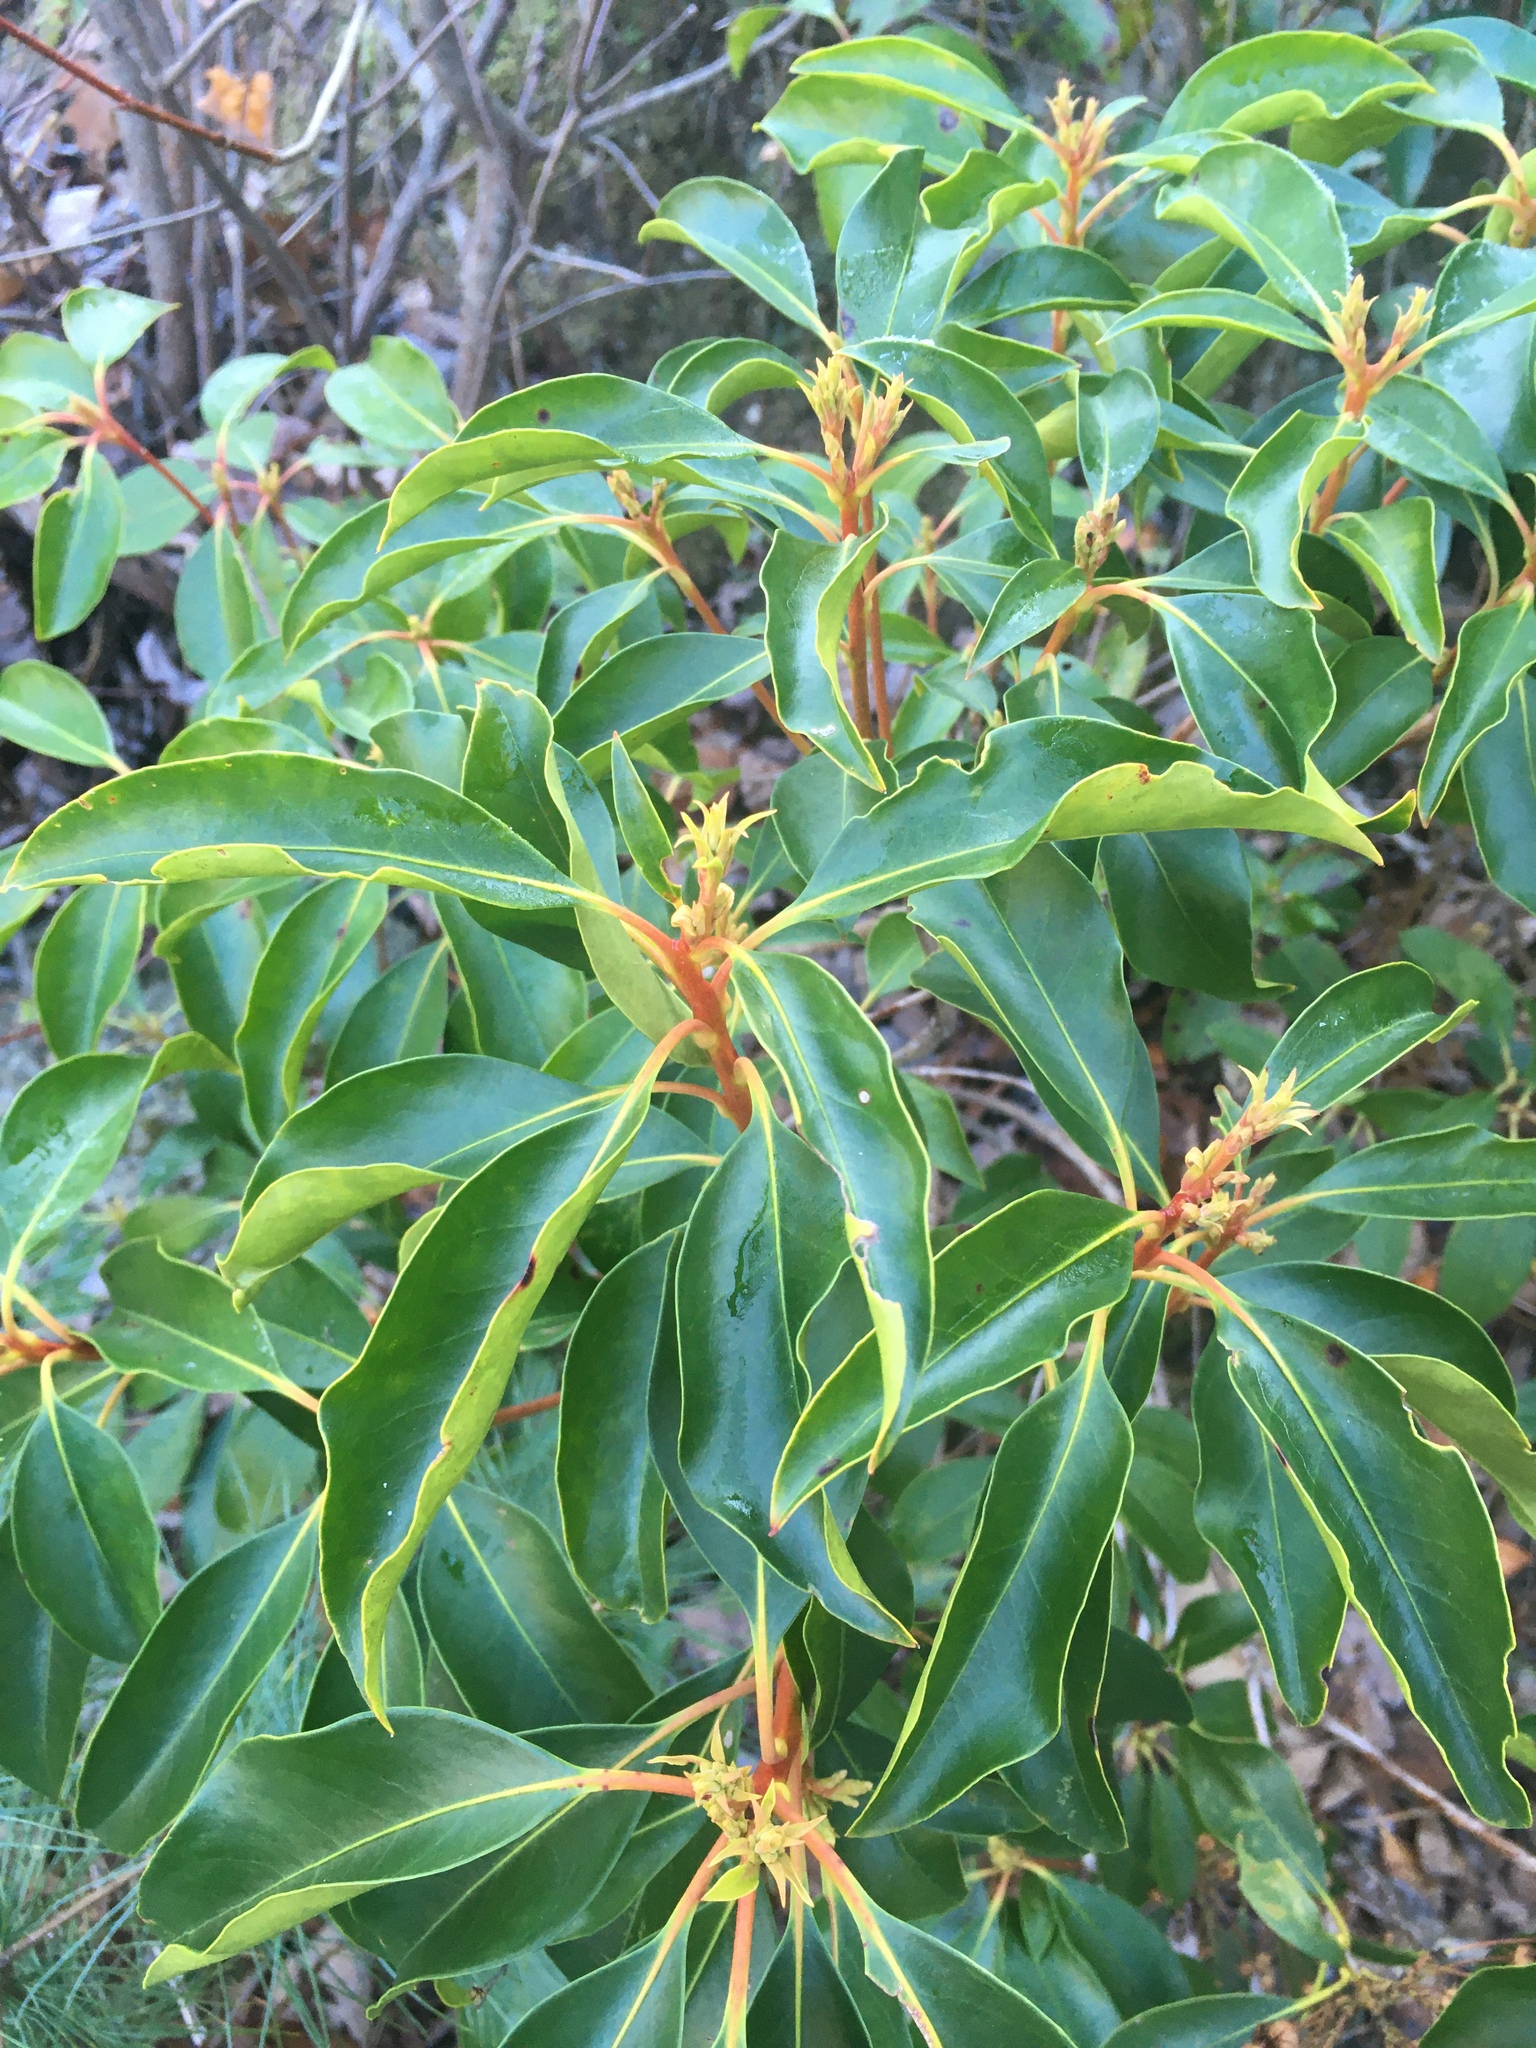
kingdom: Plantae
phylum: Tracheophyta
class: Magnoliopsida
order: Ericales
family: Ericaceae
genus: Kalmia
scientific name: Kalmia latifolia
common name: Mountain-laurel
